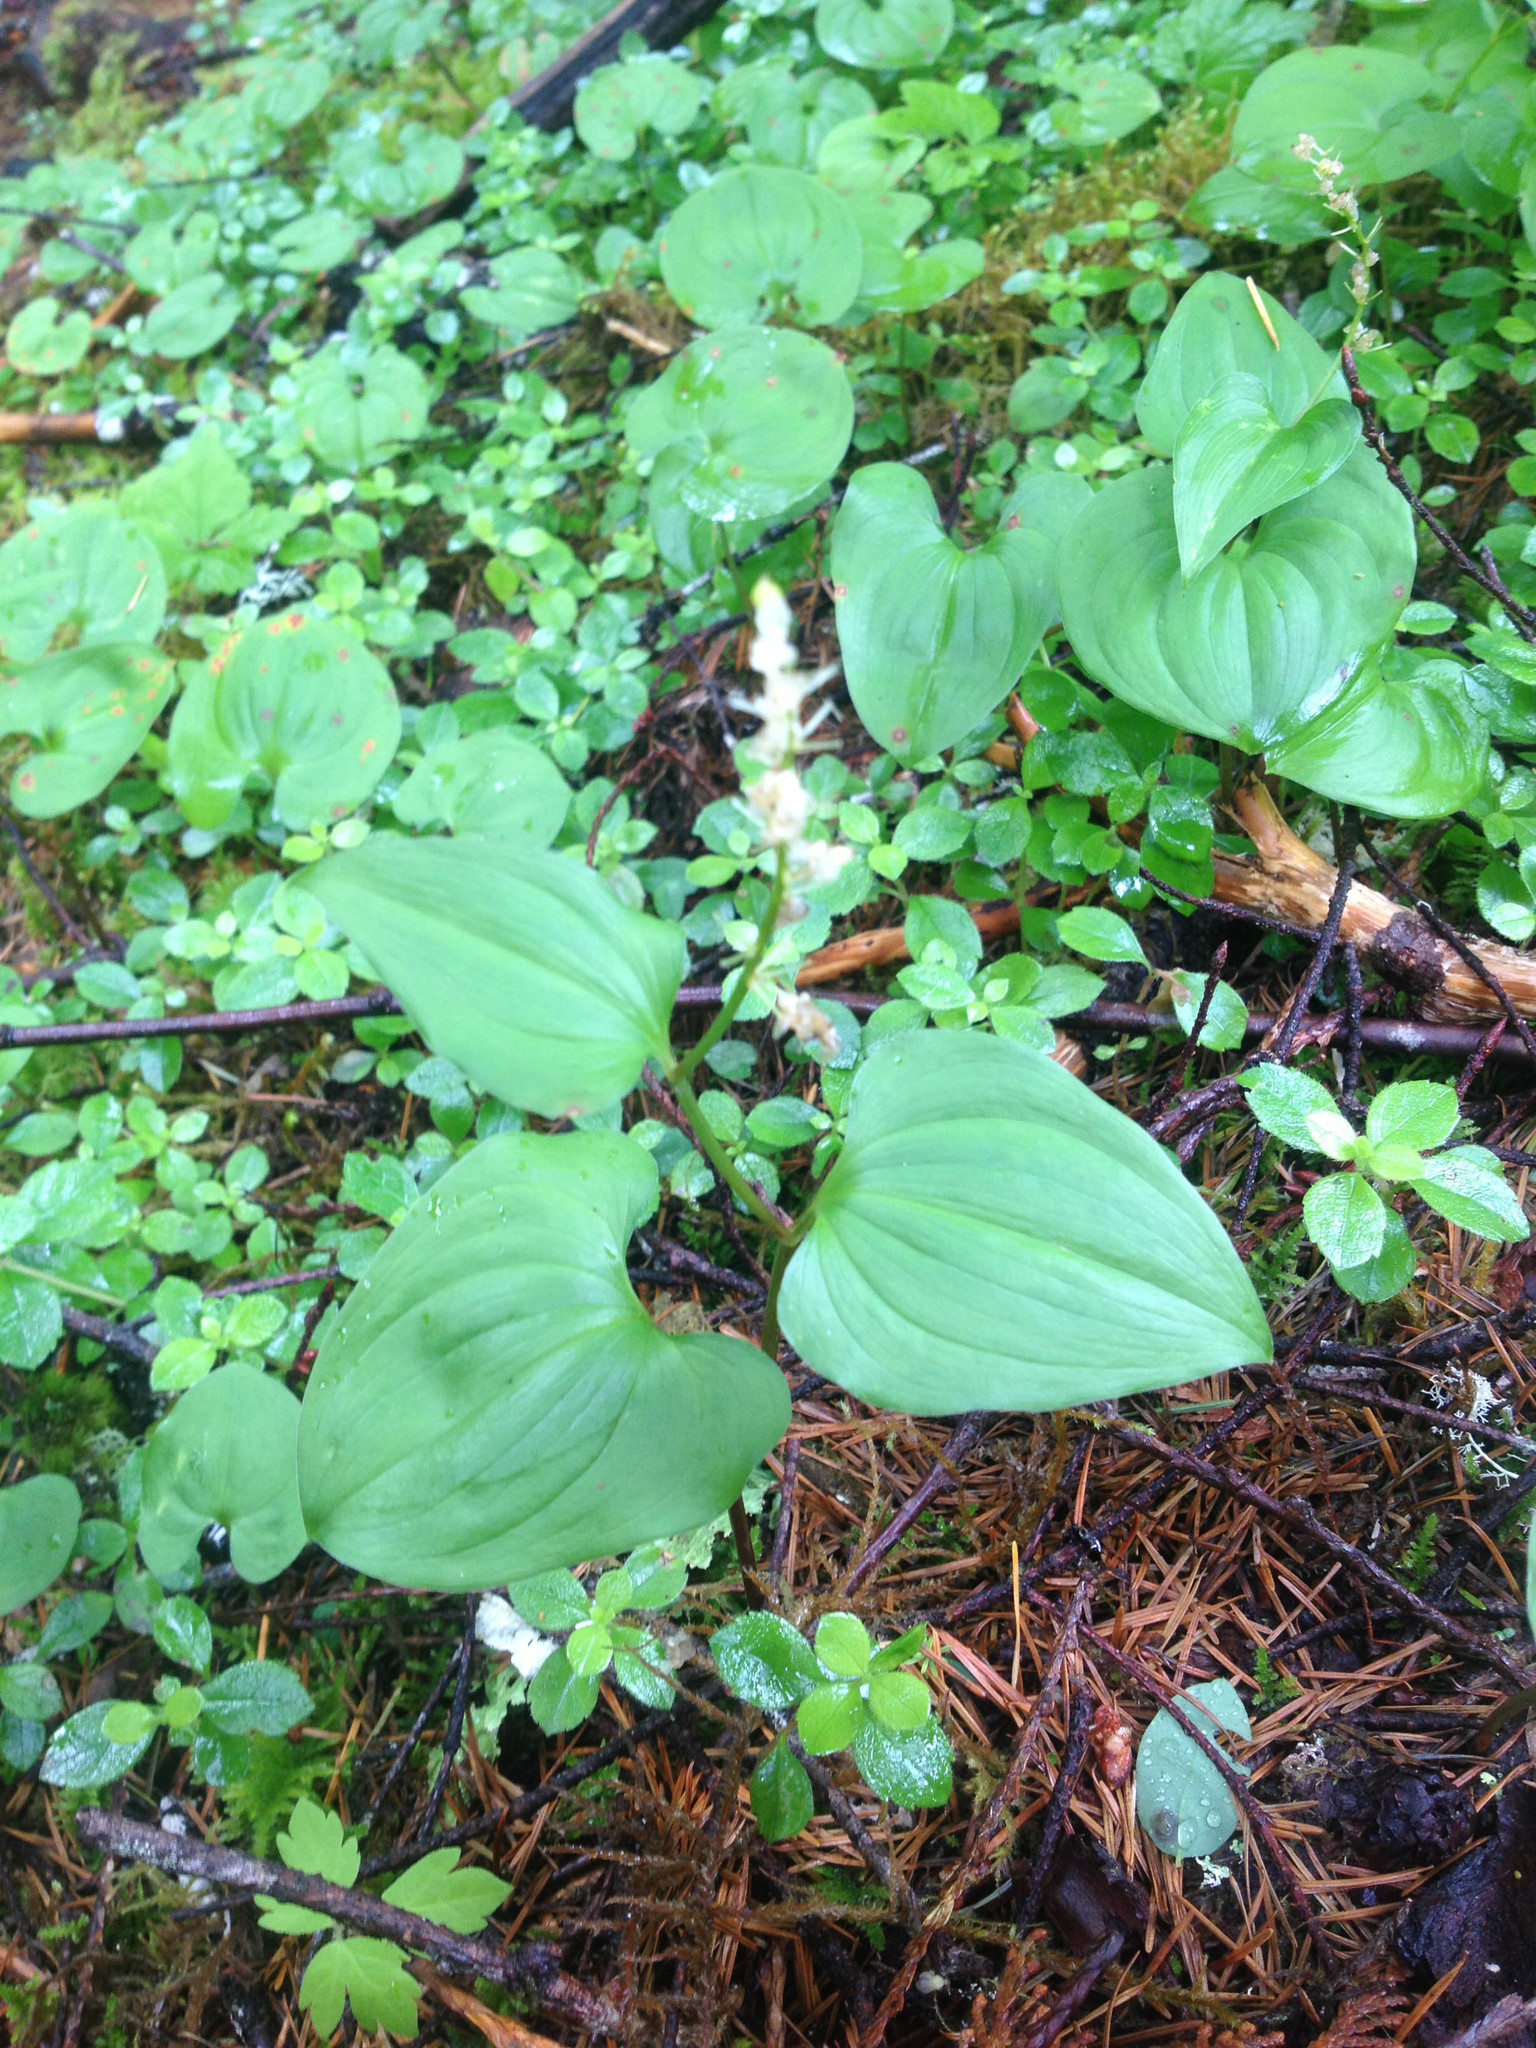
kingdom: Plantae
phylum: Tracheophyta
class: Liliopsida
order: Asparagales
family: Asparagaceae
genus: Maianthemum
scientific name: Maianthemum dilatatum
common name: False lily-of-the-valley
